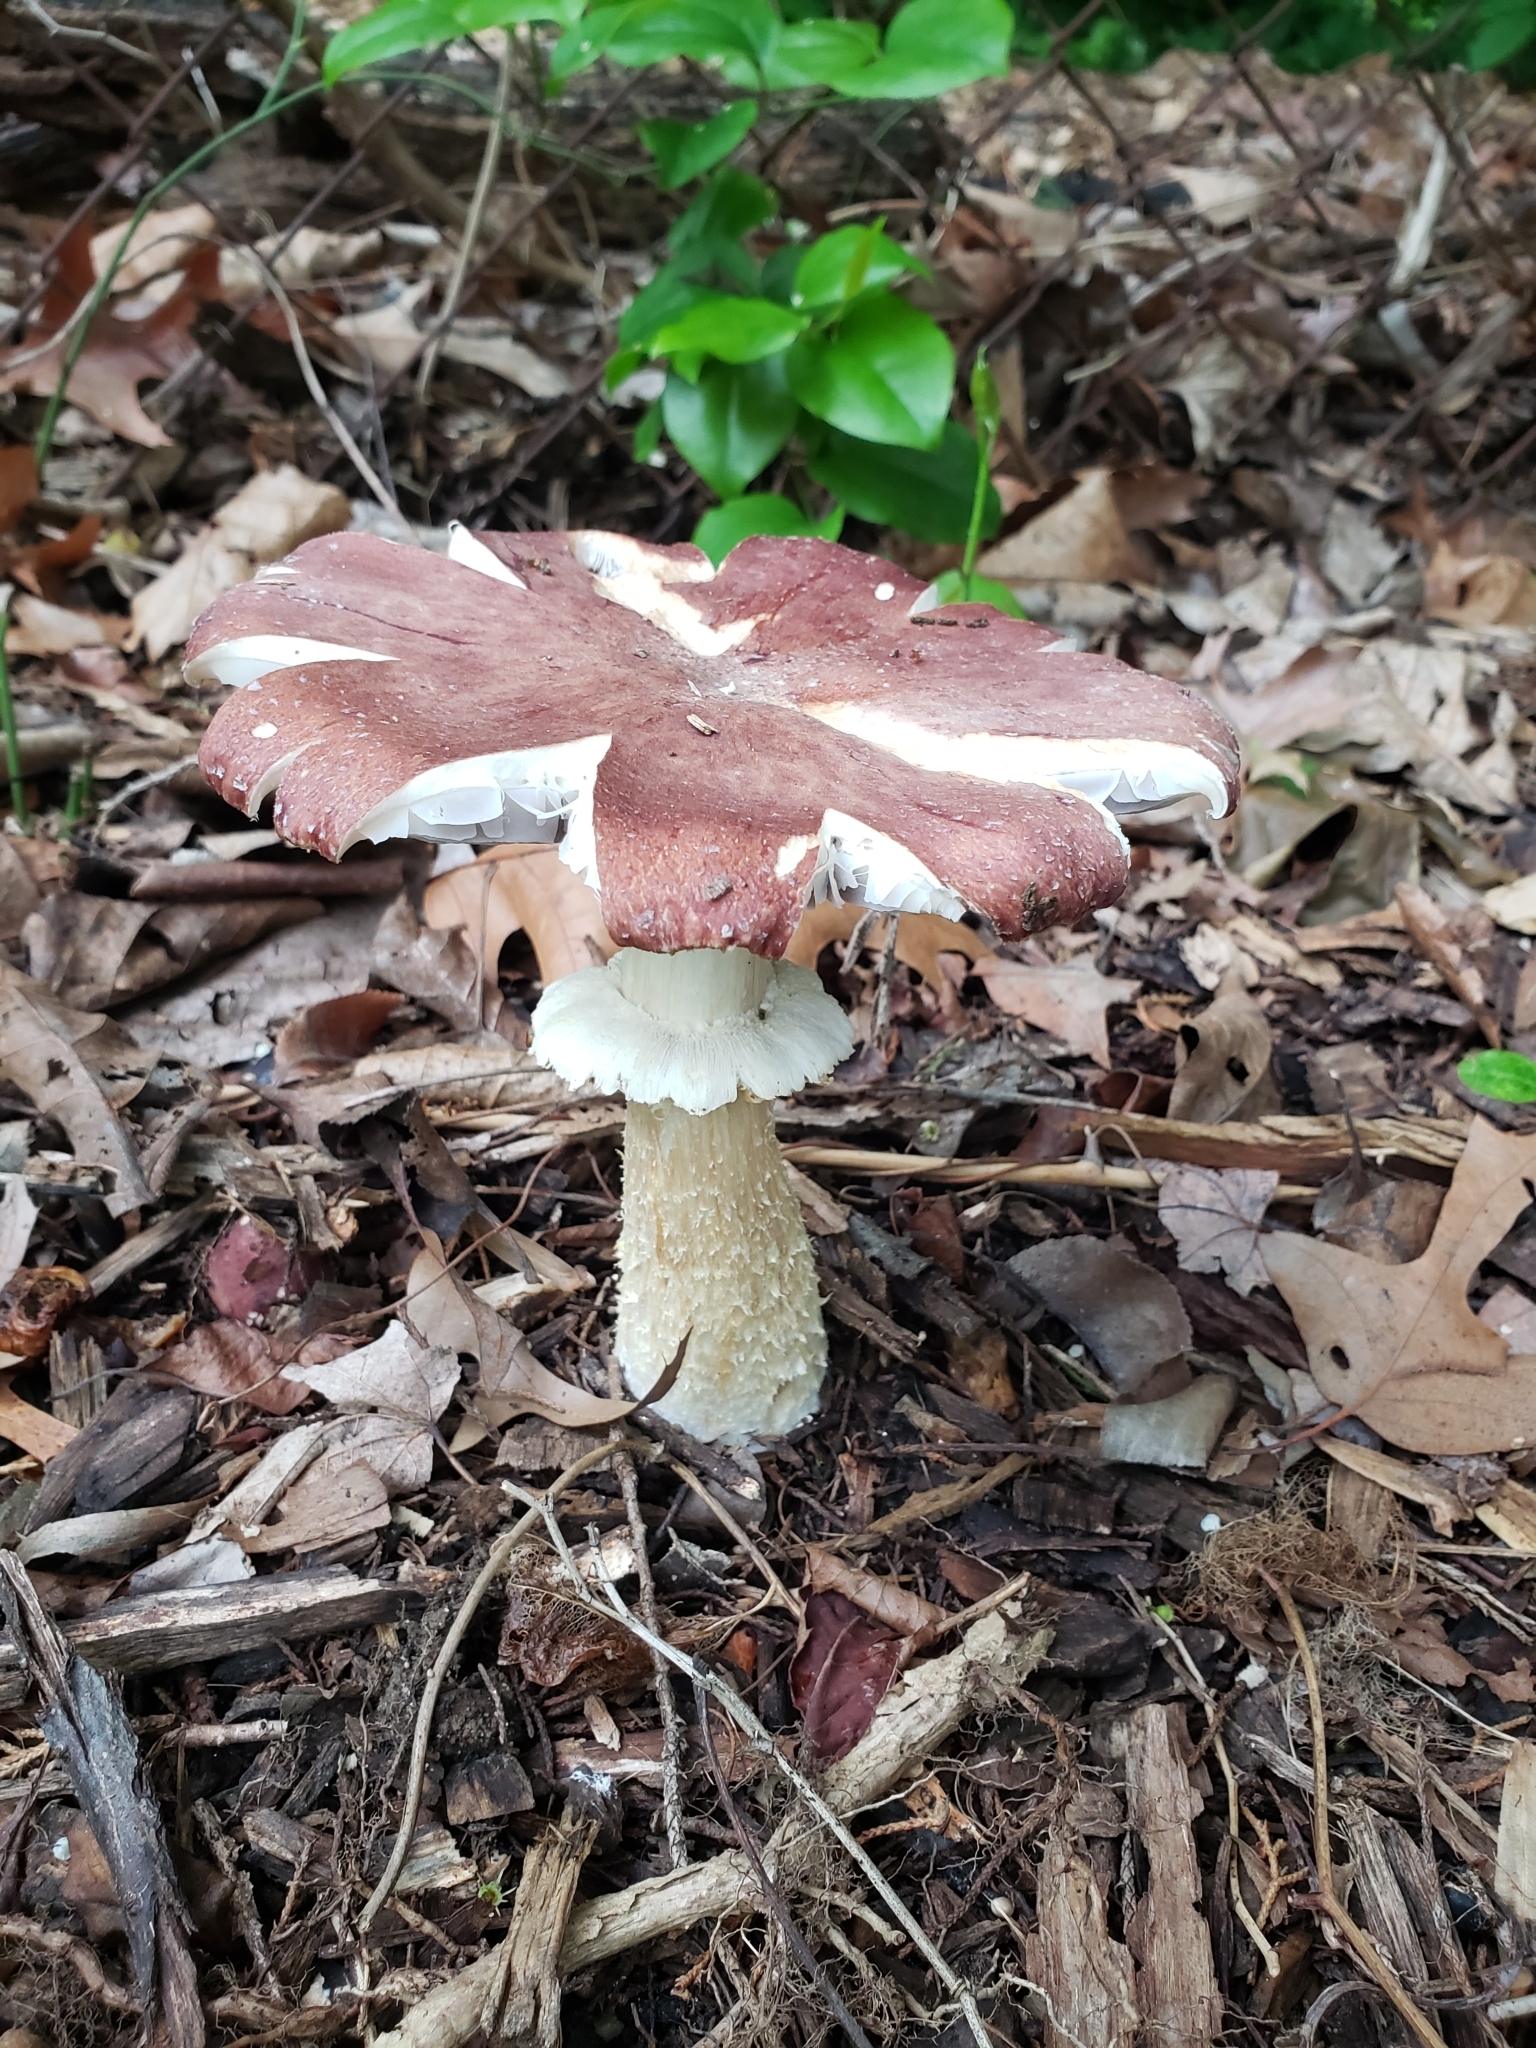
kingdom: Fungi
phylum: Basidiomycota
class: Agaricomycetes
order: Agaricales
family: Strophariaceae
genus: Stropharia
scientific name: Stropharia rugosoannulata
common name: Wine roundhead
